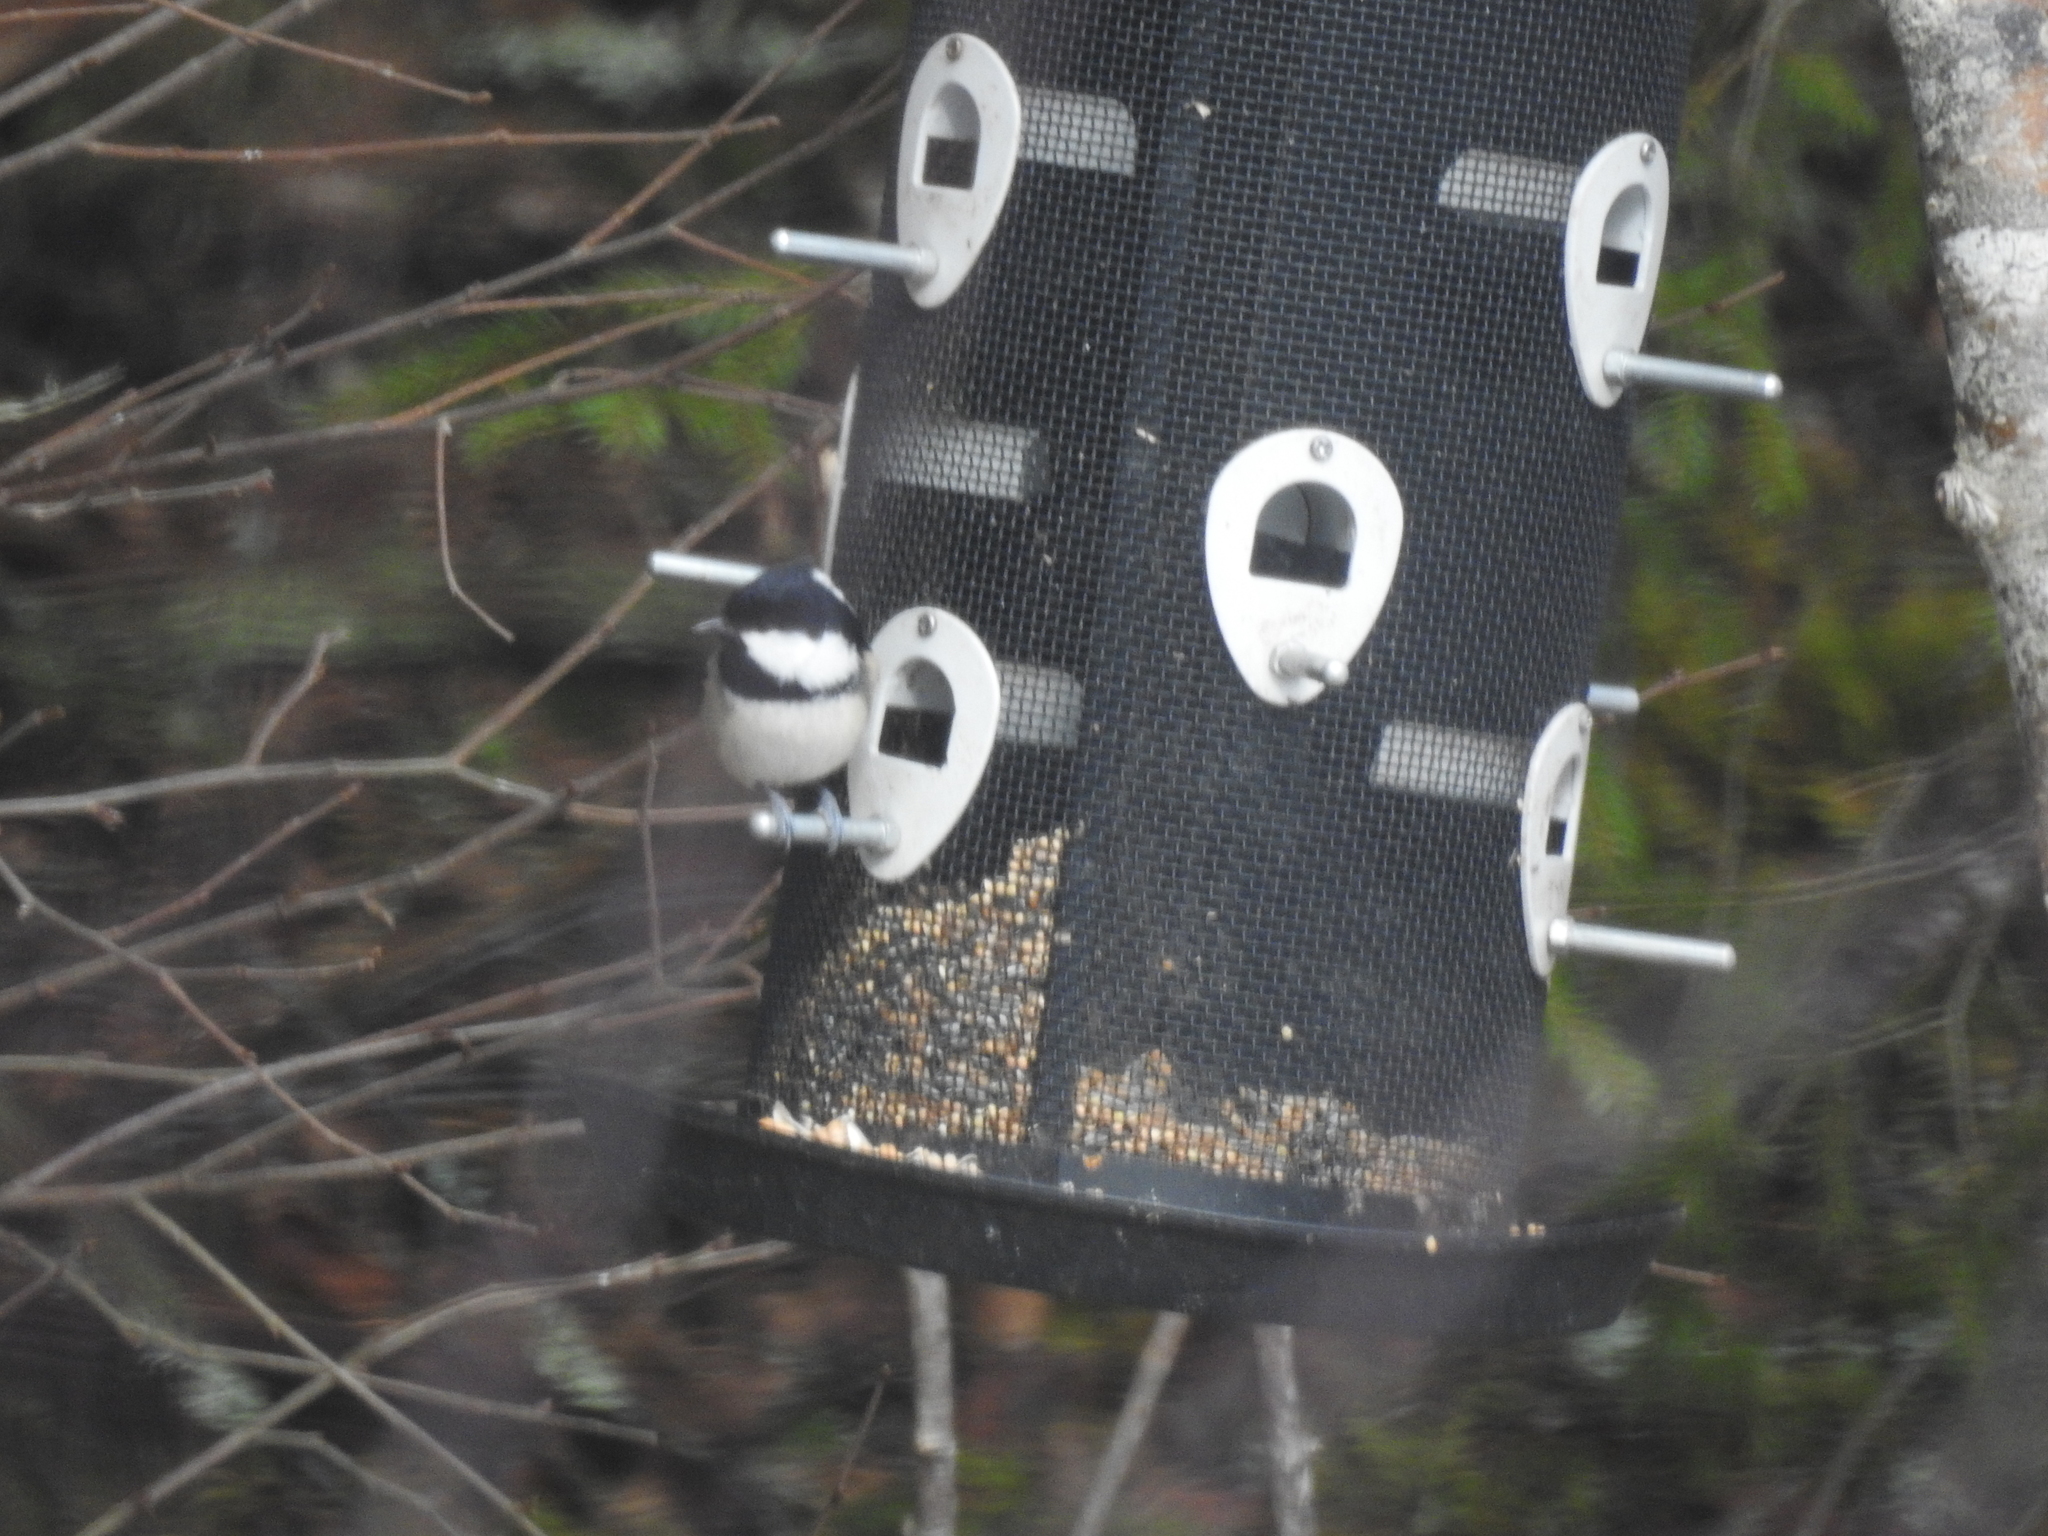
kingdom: Animalia
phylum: Chordata
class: Aves
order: Passeriformes
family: Paridae
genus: Periparus
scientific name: Periparus ater
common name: Coal tit
